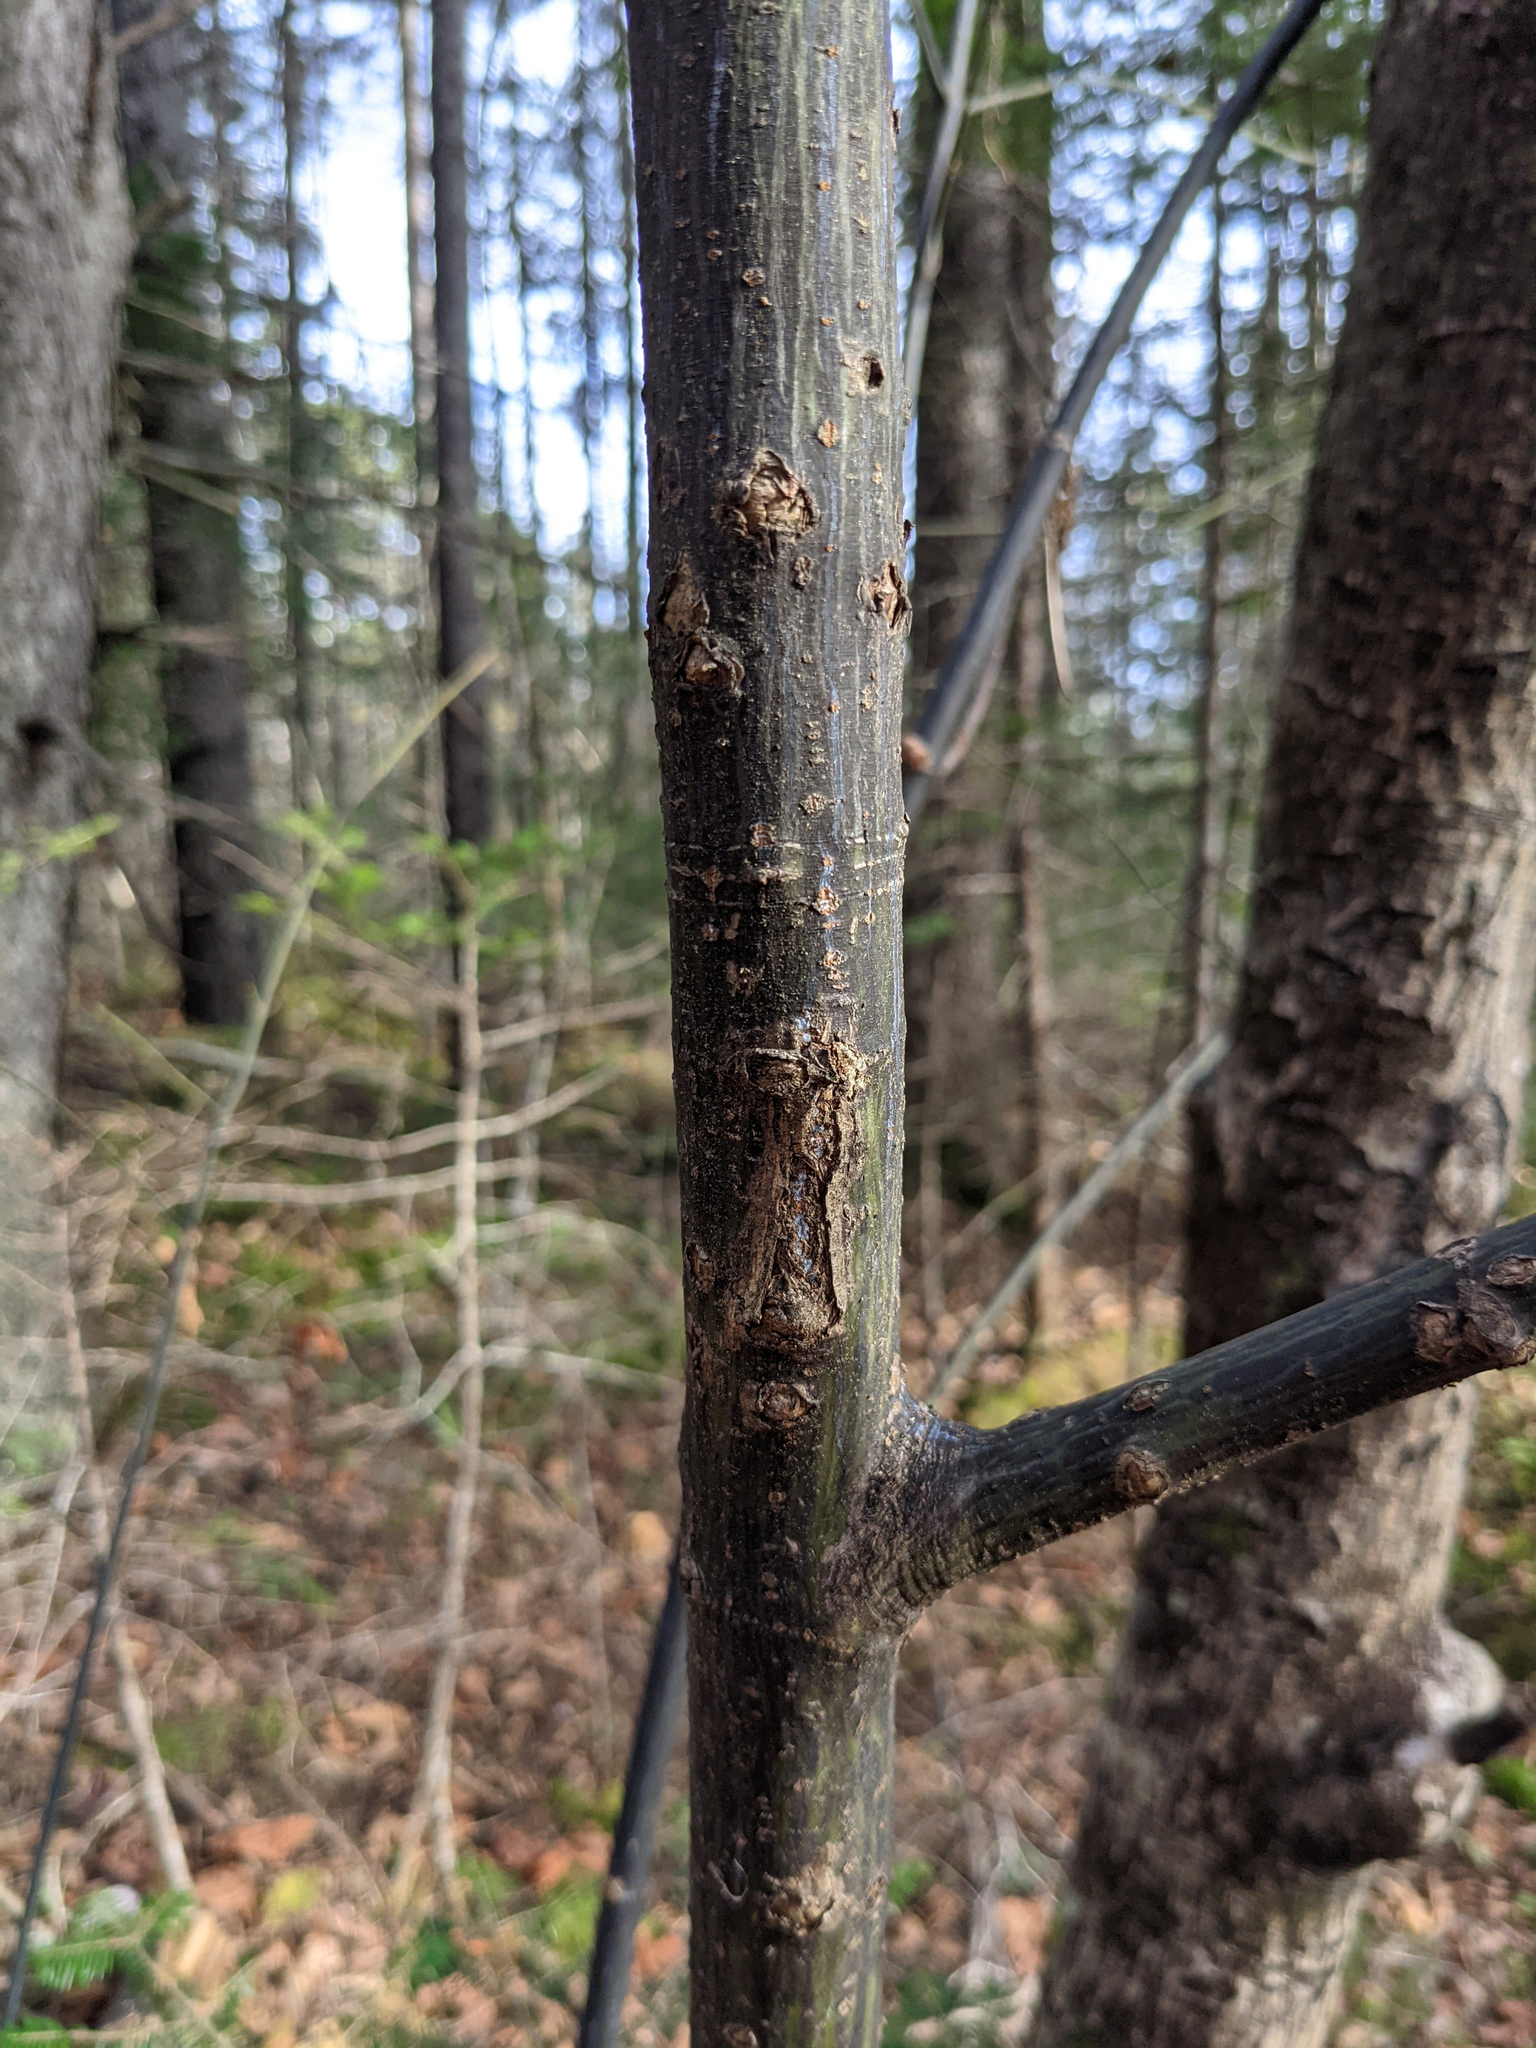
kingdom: Plantae
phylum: Tracheophyta
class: Magnoliopsida
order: Sapindales
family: Sapindaceae
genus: Acer
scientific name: Acer pensylvanicum
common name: Moosewood
